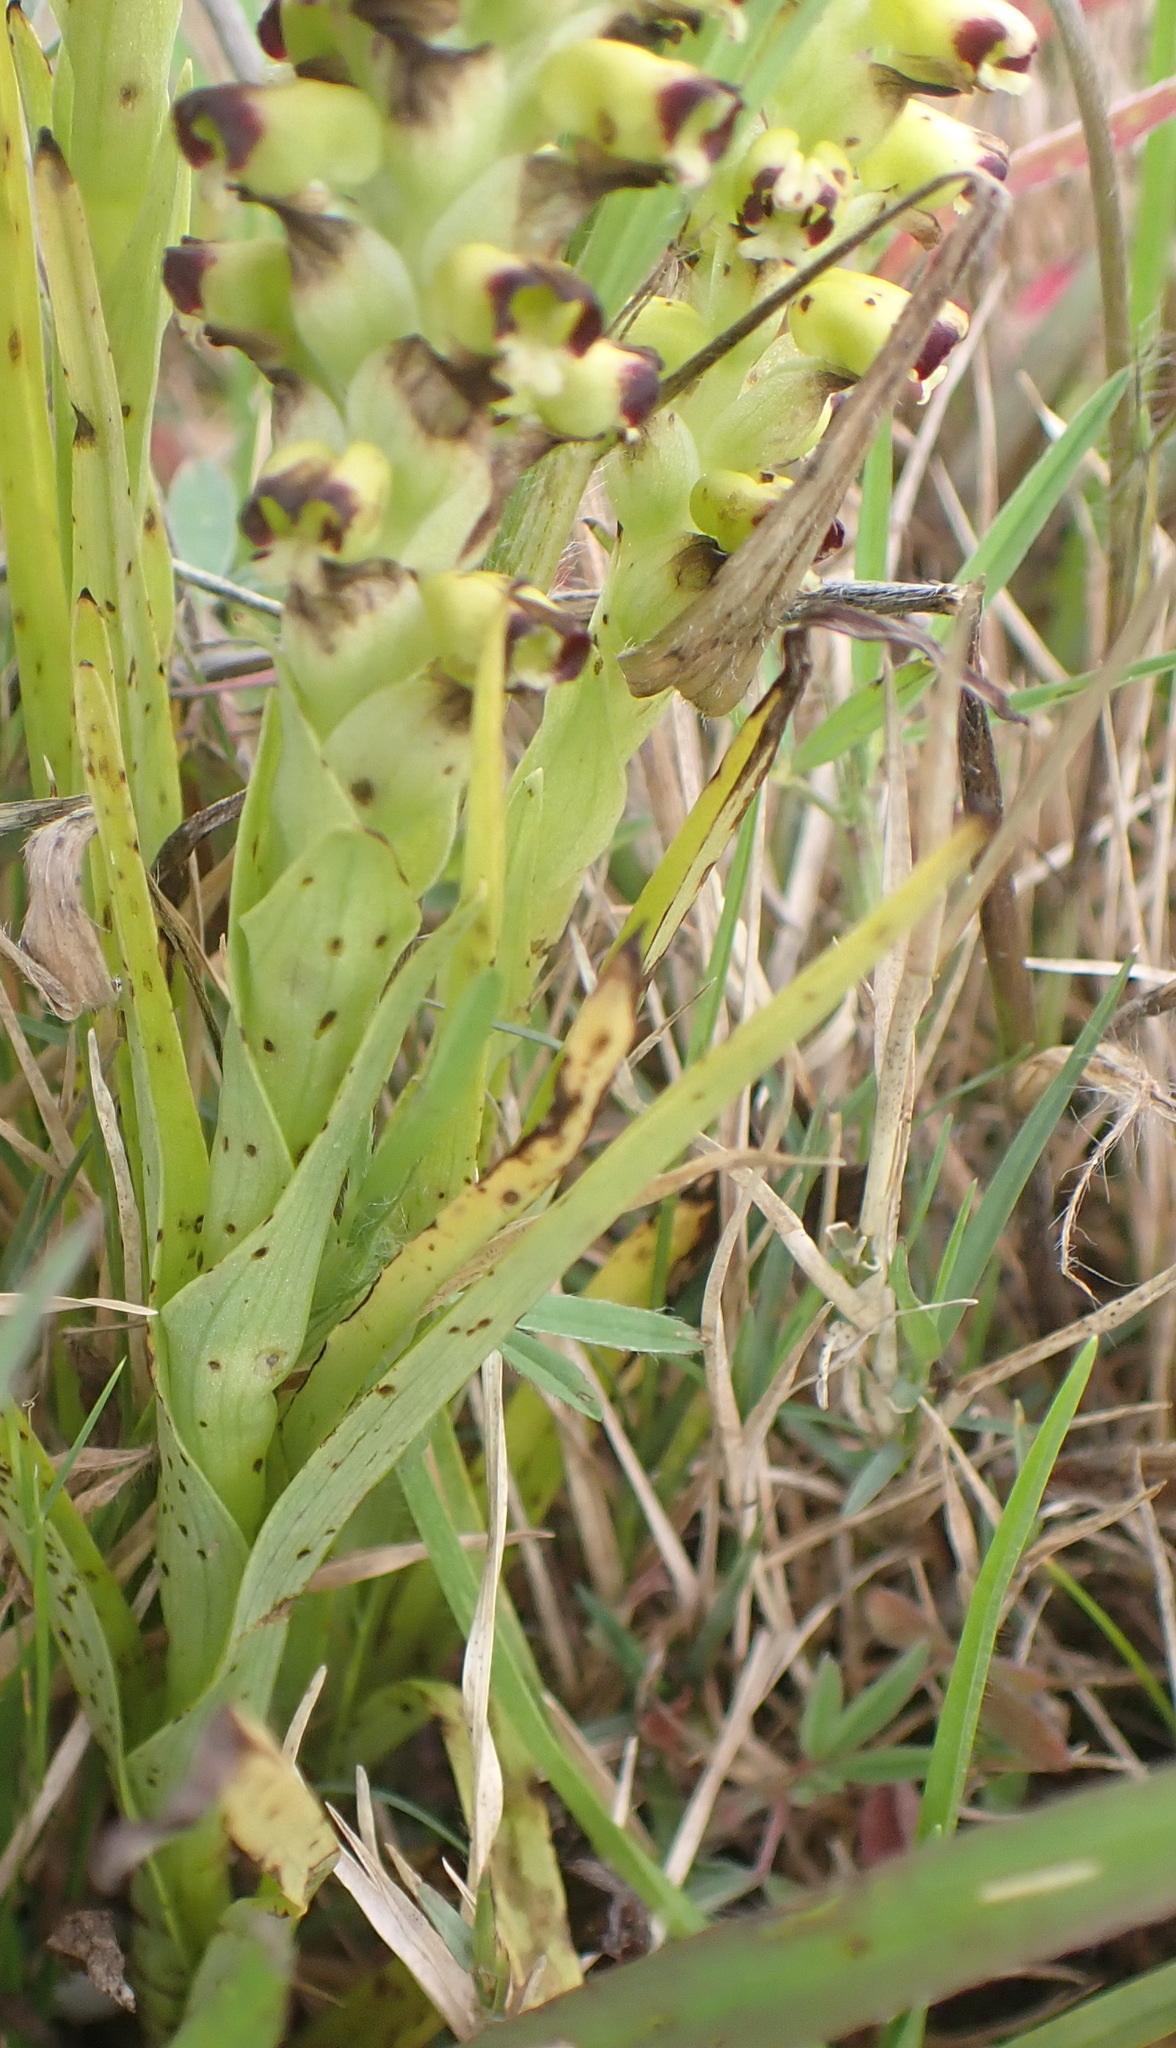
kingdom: Plantae
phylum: Tracheophyta
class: Liliopsida
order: Asparagales
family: Orchidaceae
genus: Corycium
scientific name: Corycium orobanchoides
